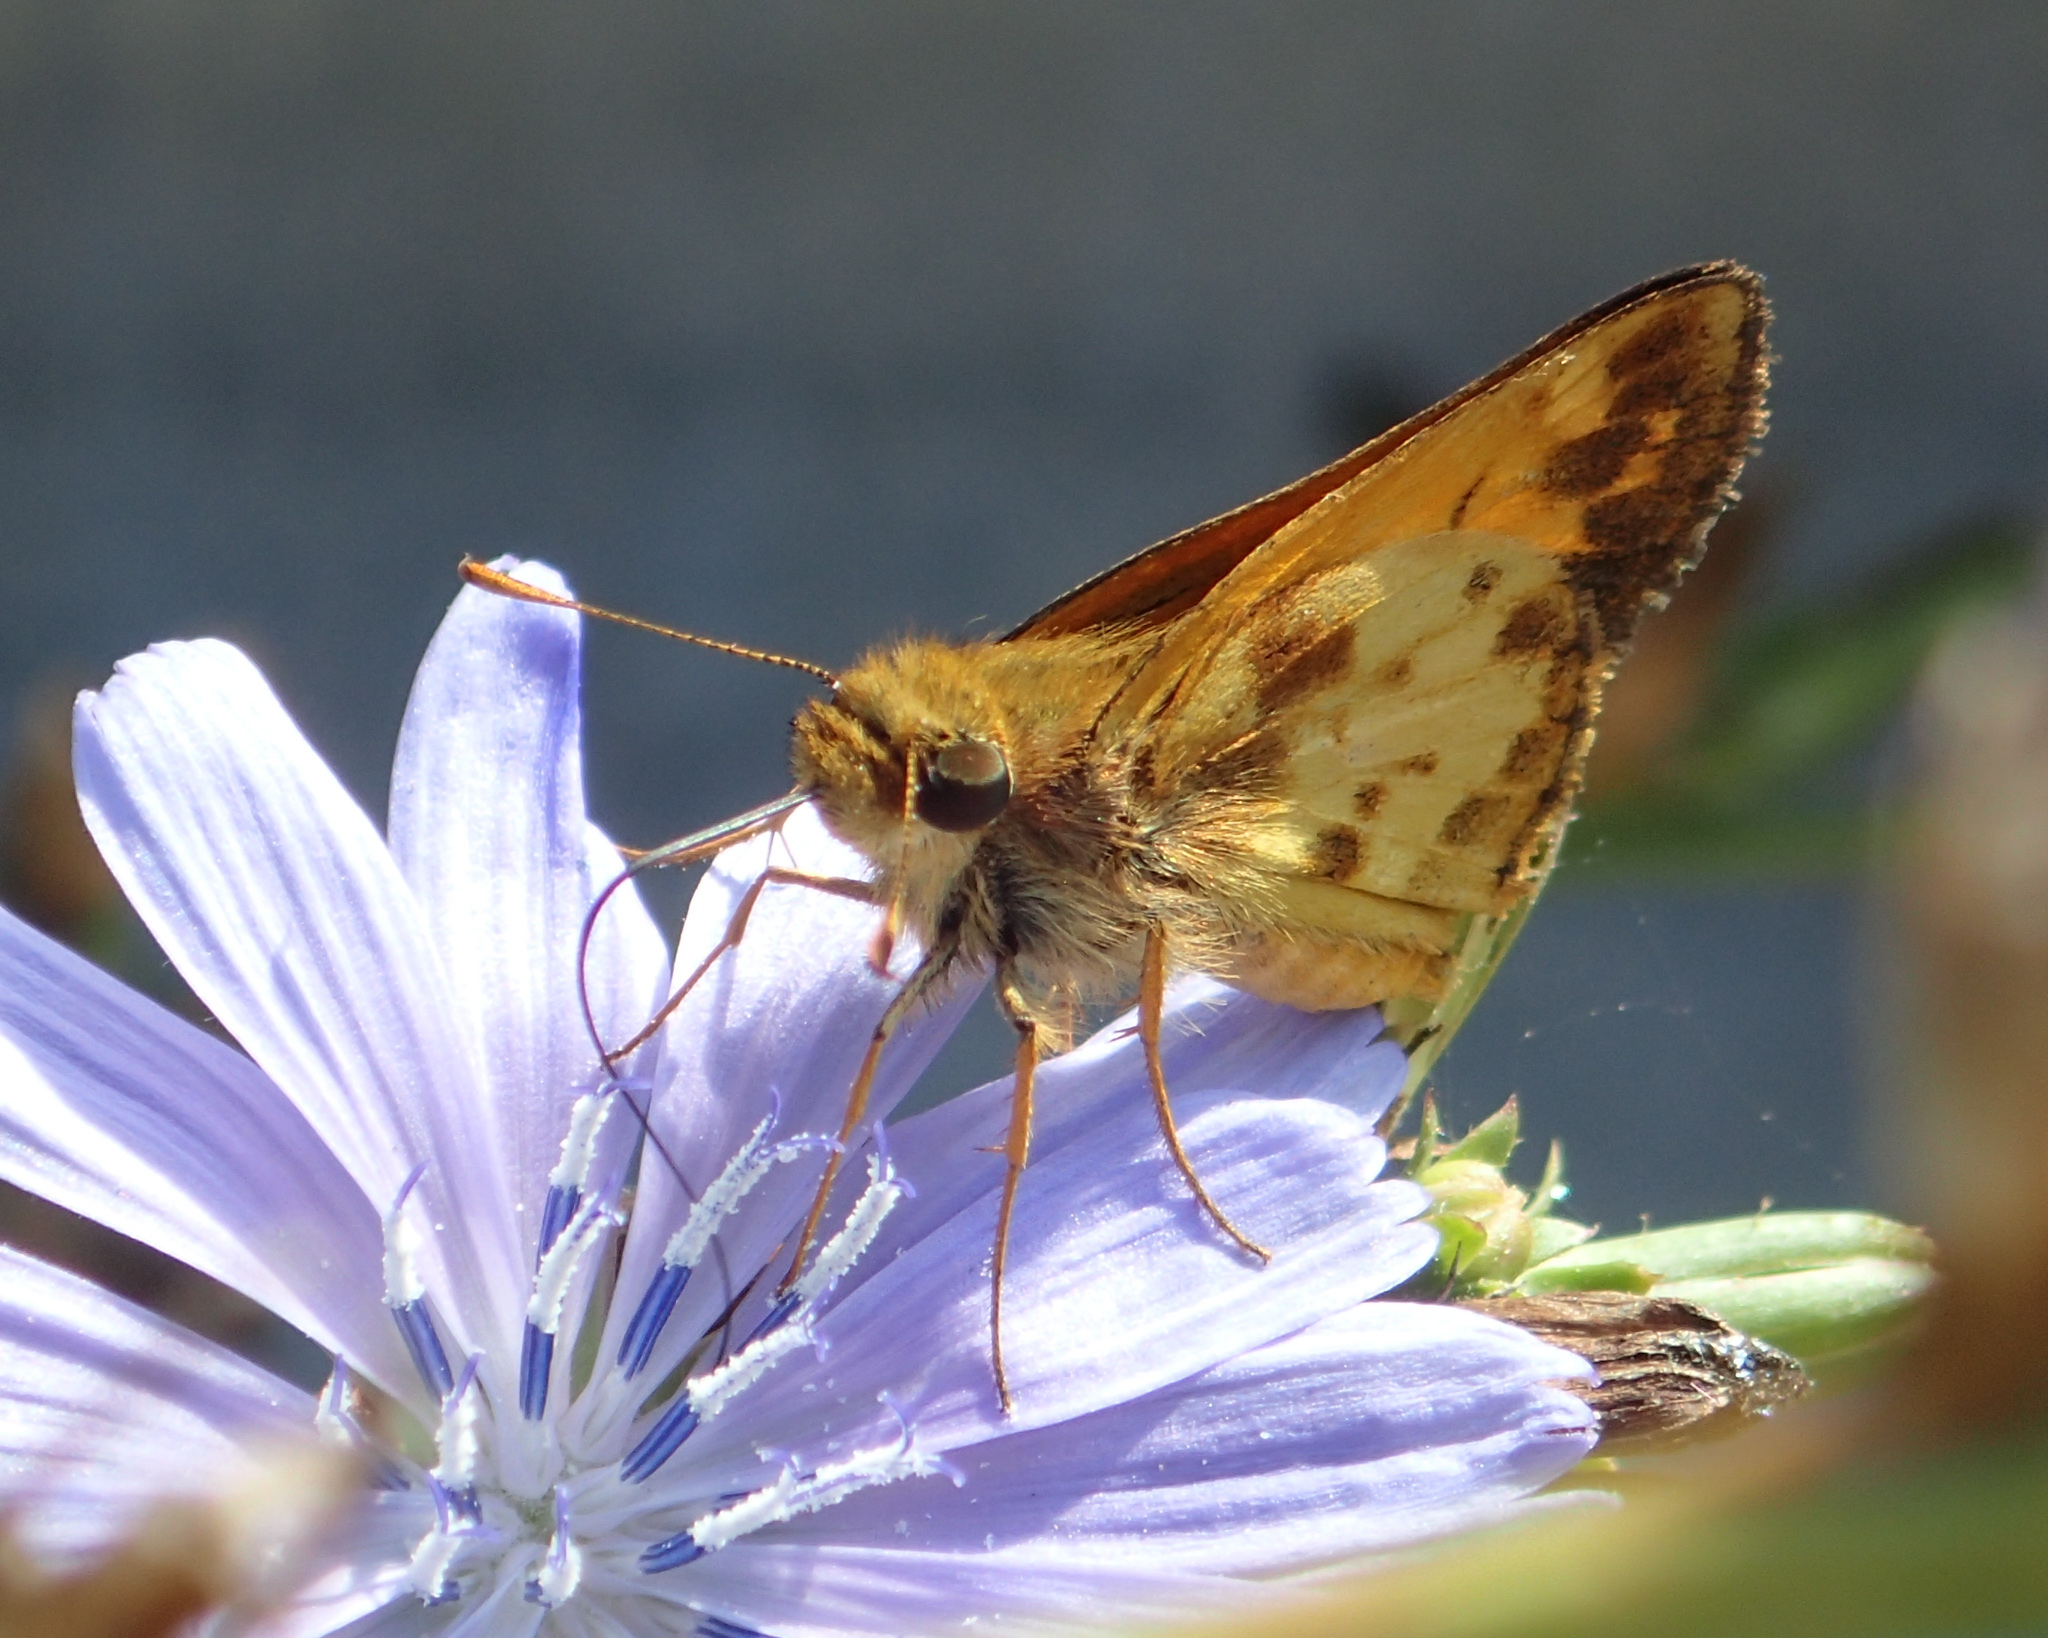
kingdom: Animalia
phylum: Arthropoda
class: Insecta
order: Lepidoptera
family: Hesperiidae
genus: Lon
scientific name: Lon zabulon
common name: Zabulon skipper
